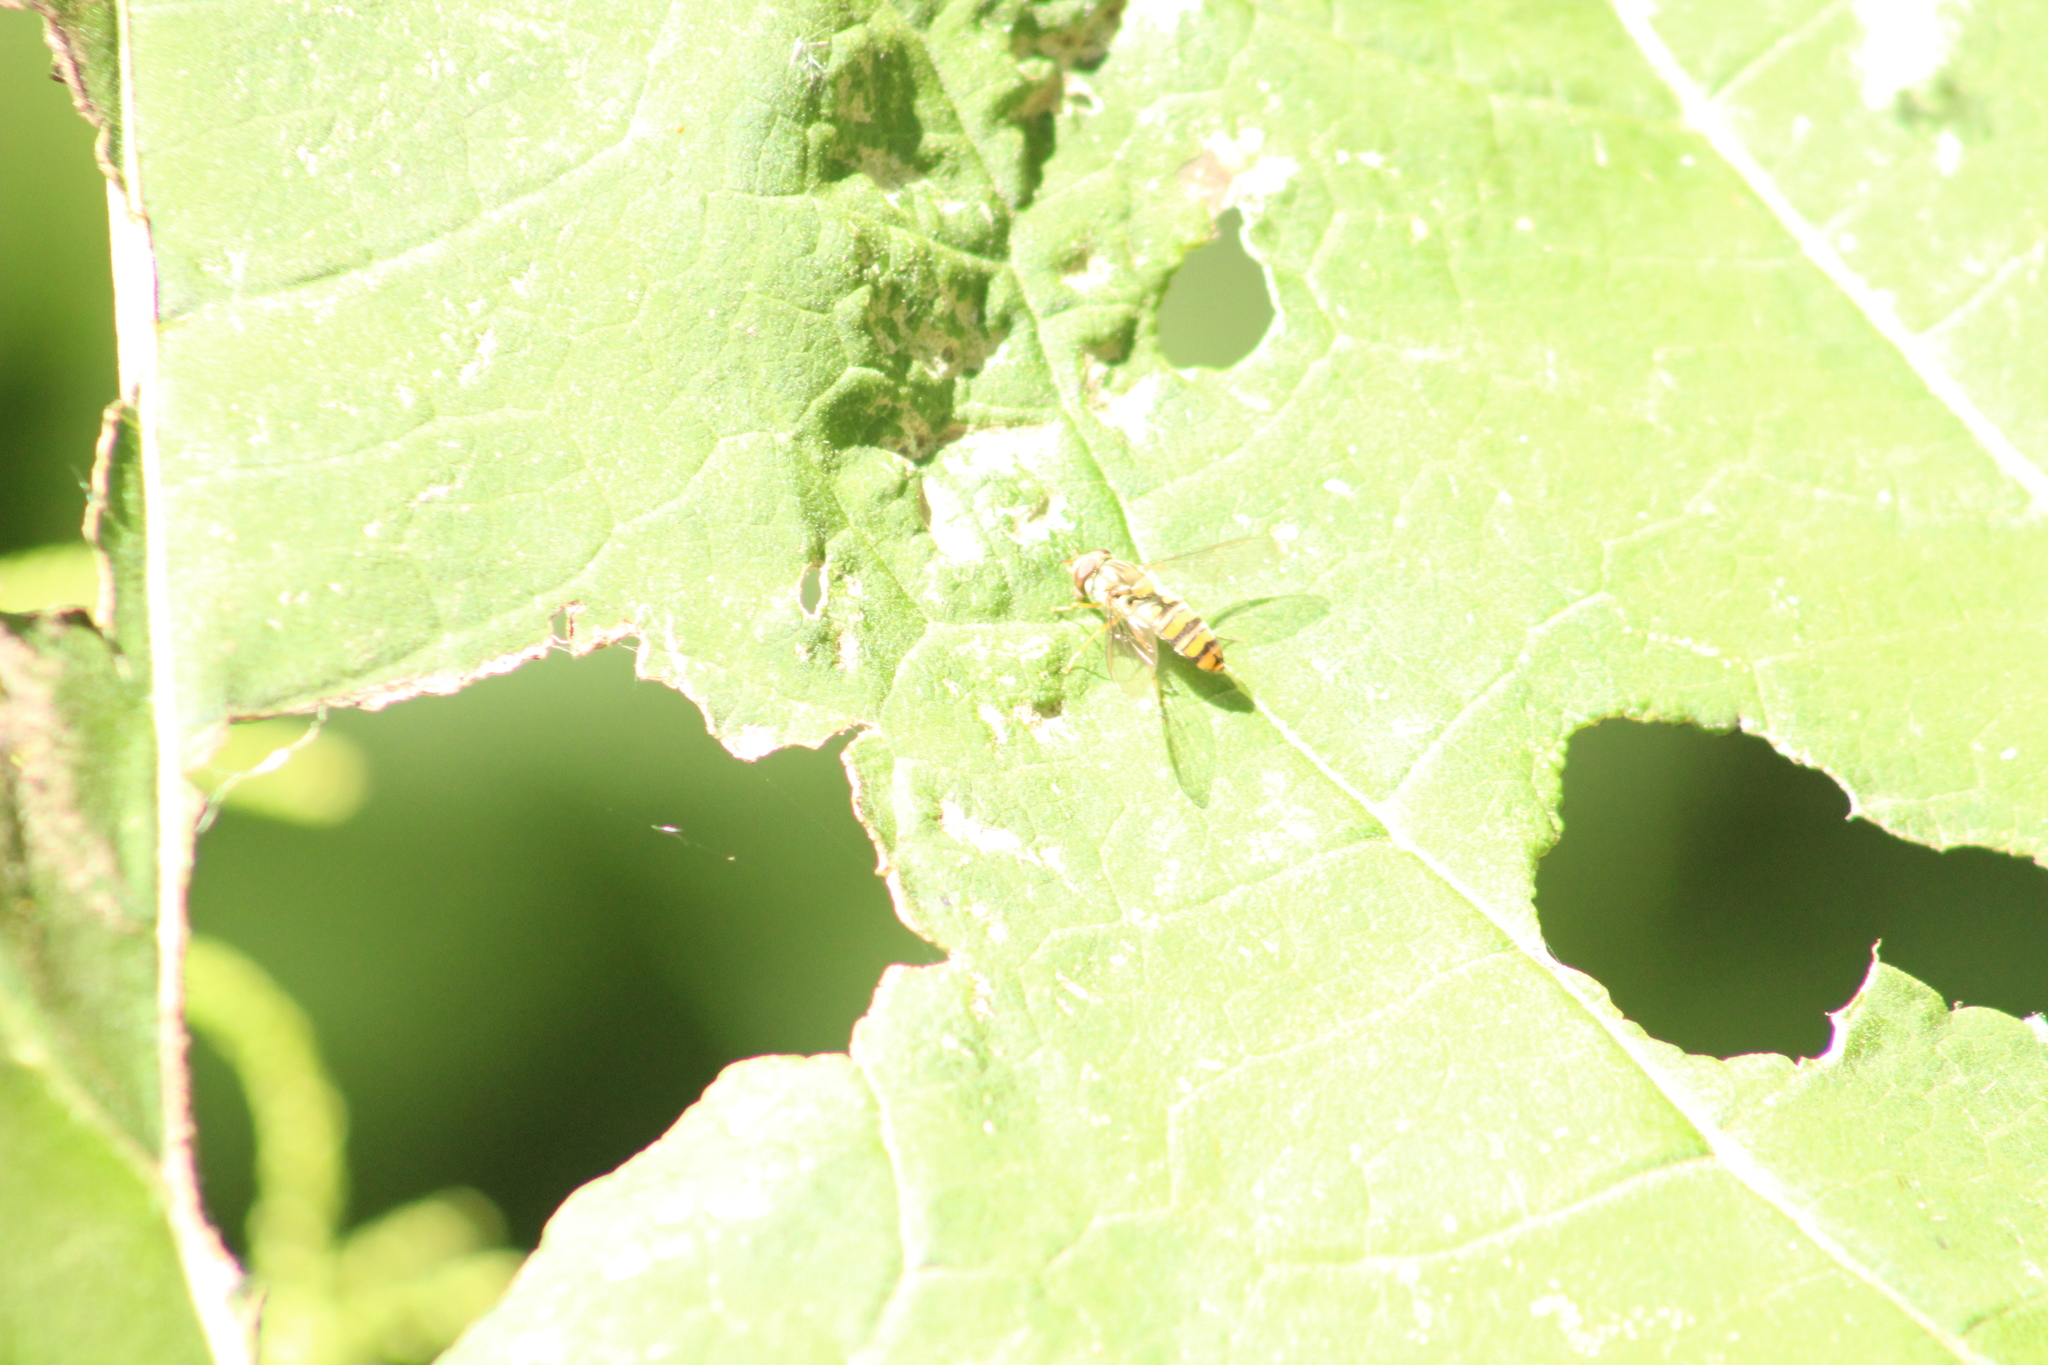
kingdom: Animalia
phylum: Arthropoda
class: Insecta
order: Diptera
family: Syrphidae
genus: Episyrphus
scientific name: Episyrphus balteatus
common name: Marmalade hoverfly
